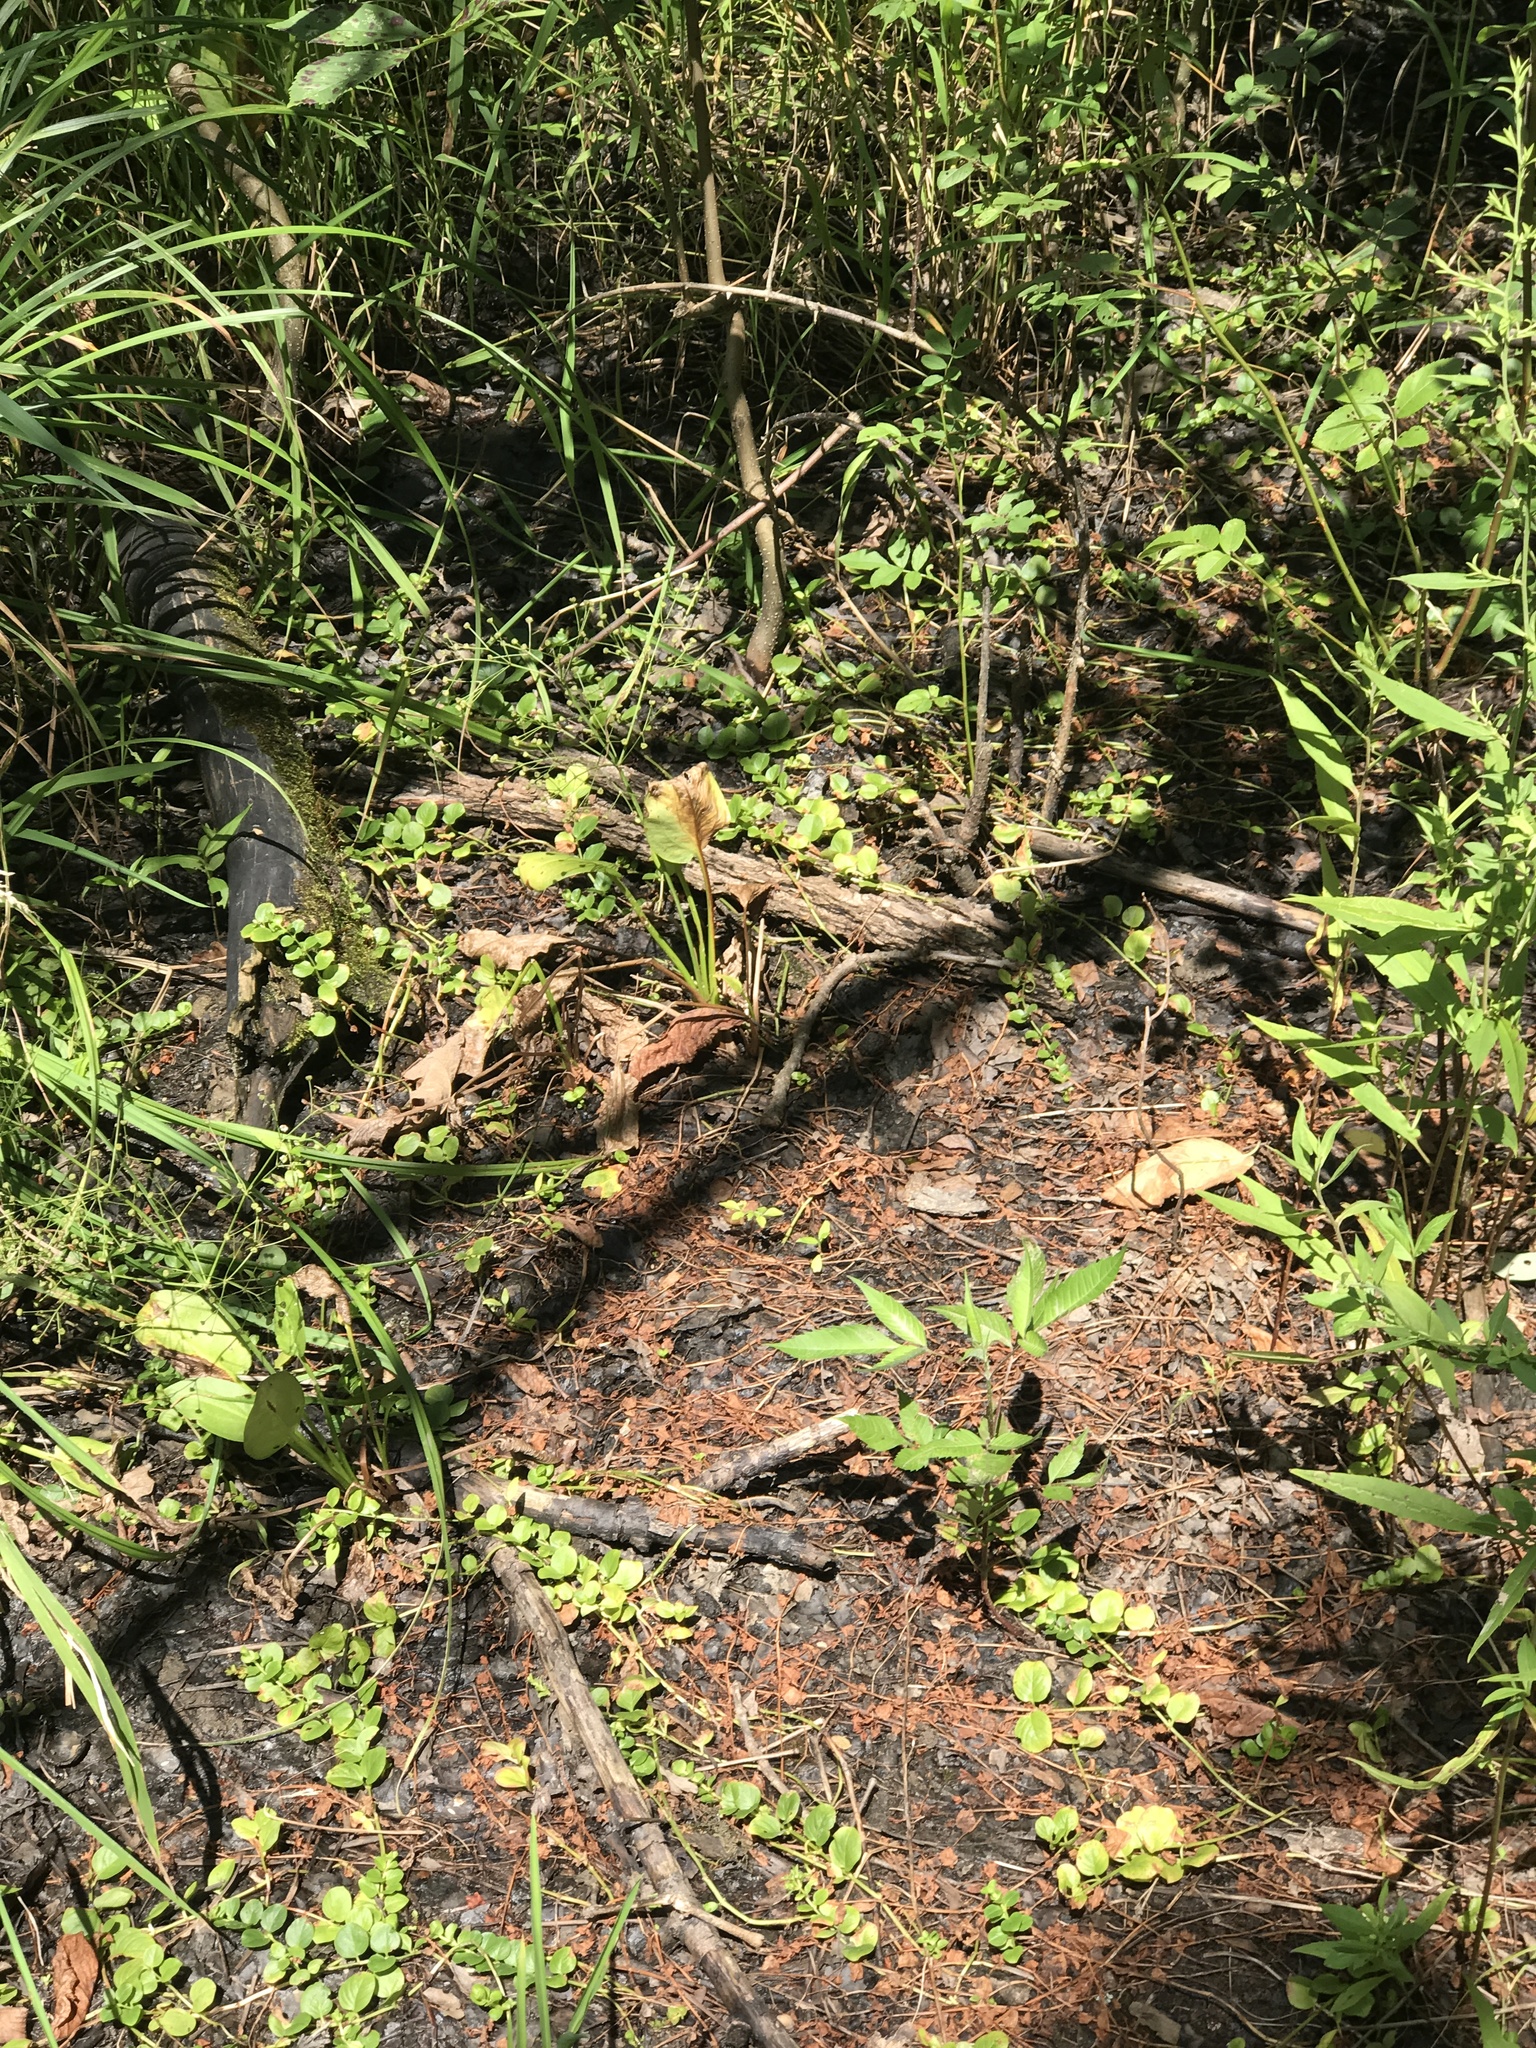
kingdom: Plantae
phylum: Tracheophyta
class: Magnoliopsida
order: Ericales
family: Primulaceae
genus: Lysimachia
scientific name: Lysimachia nummularia
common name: Moneywort
